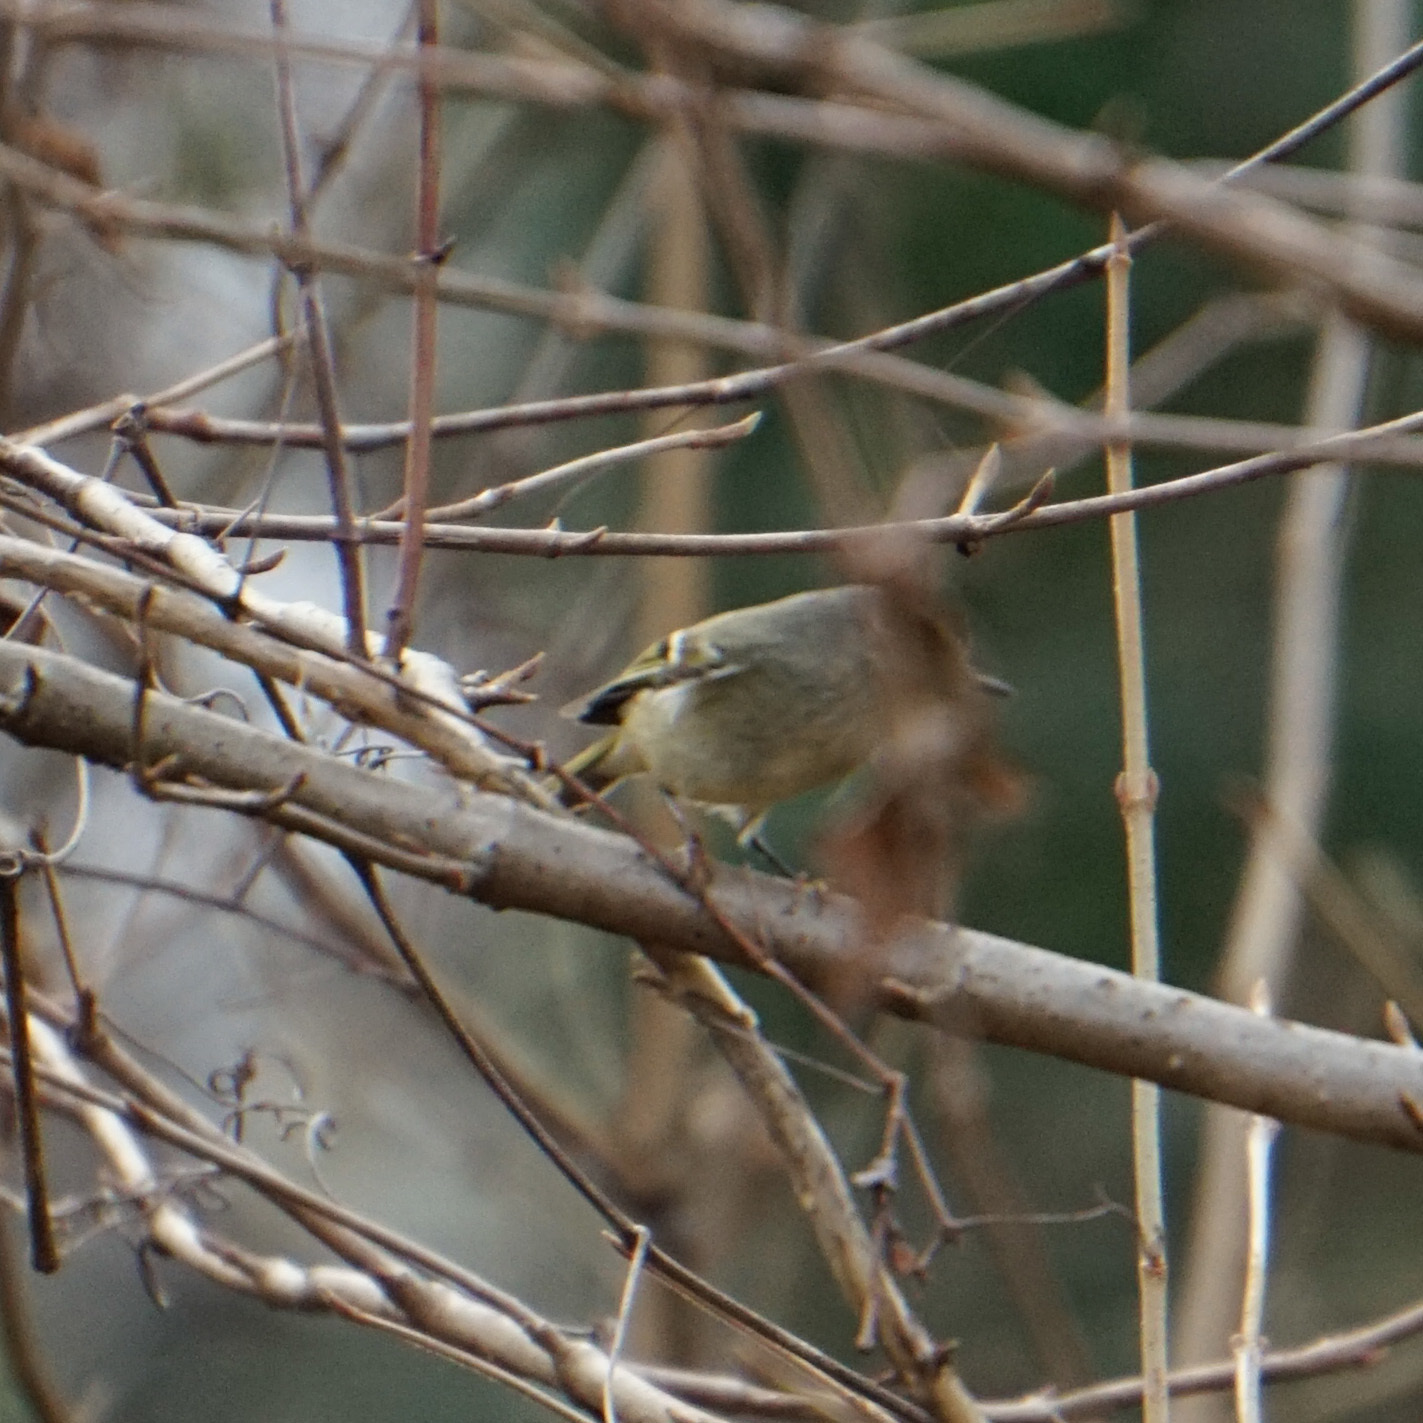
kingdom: Animalia
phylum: Chordata
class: Aves
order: Passeriformes
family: Regulidae
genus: Regulus
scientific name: Regulus calendula
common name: Ruby-crowned kinglet
